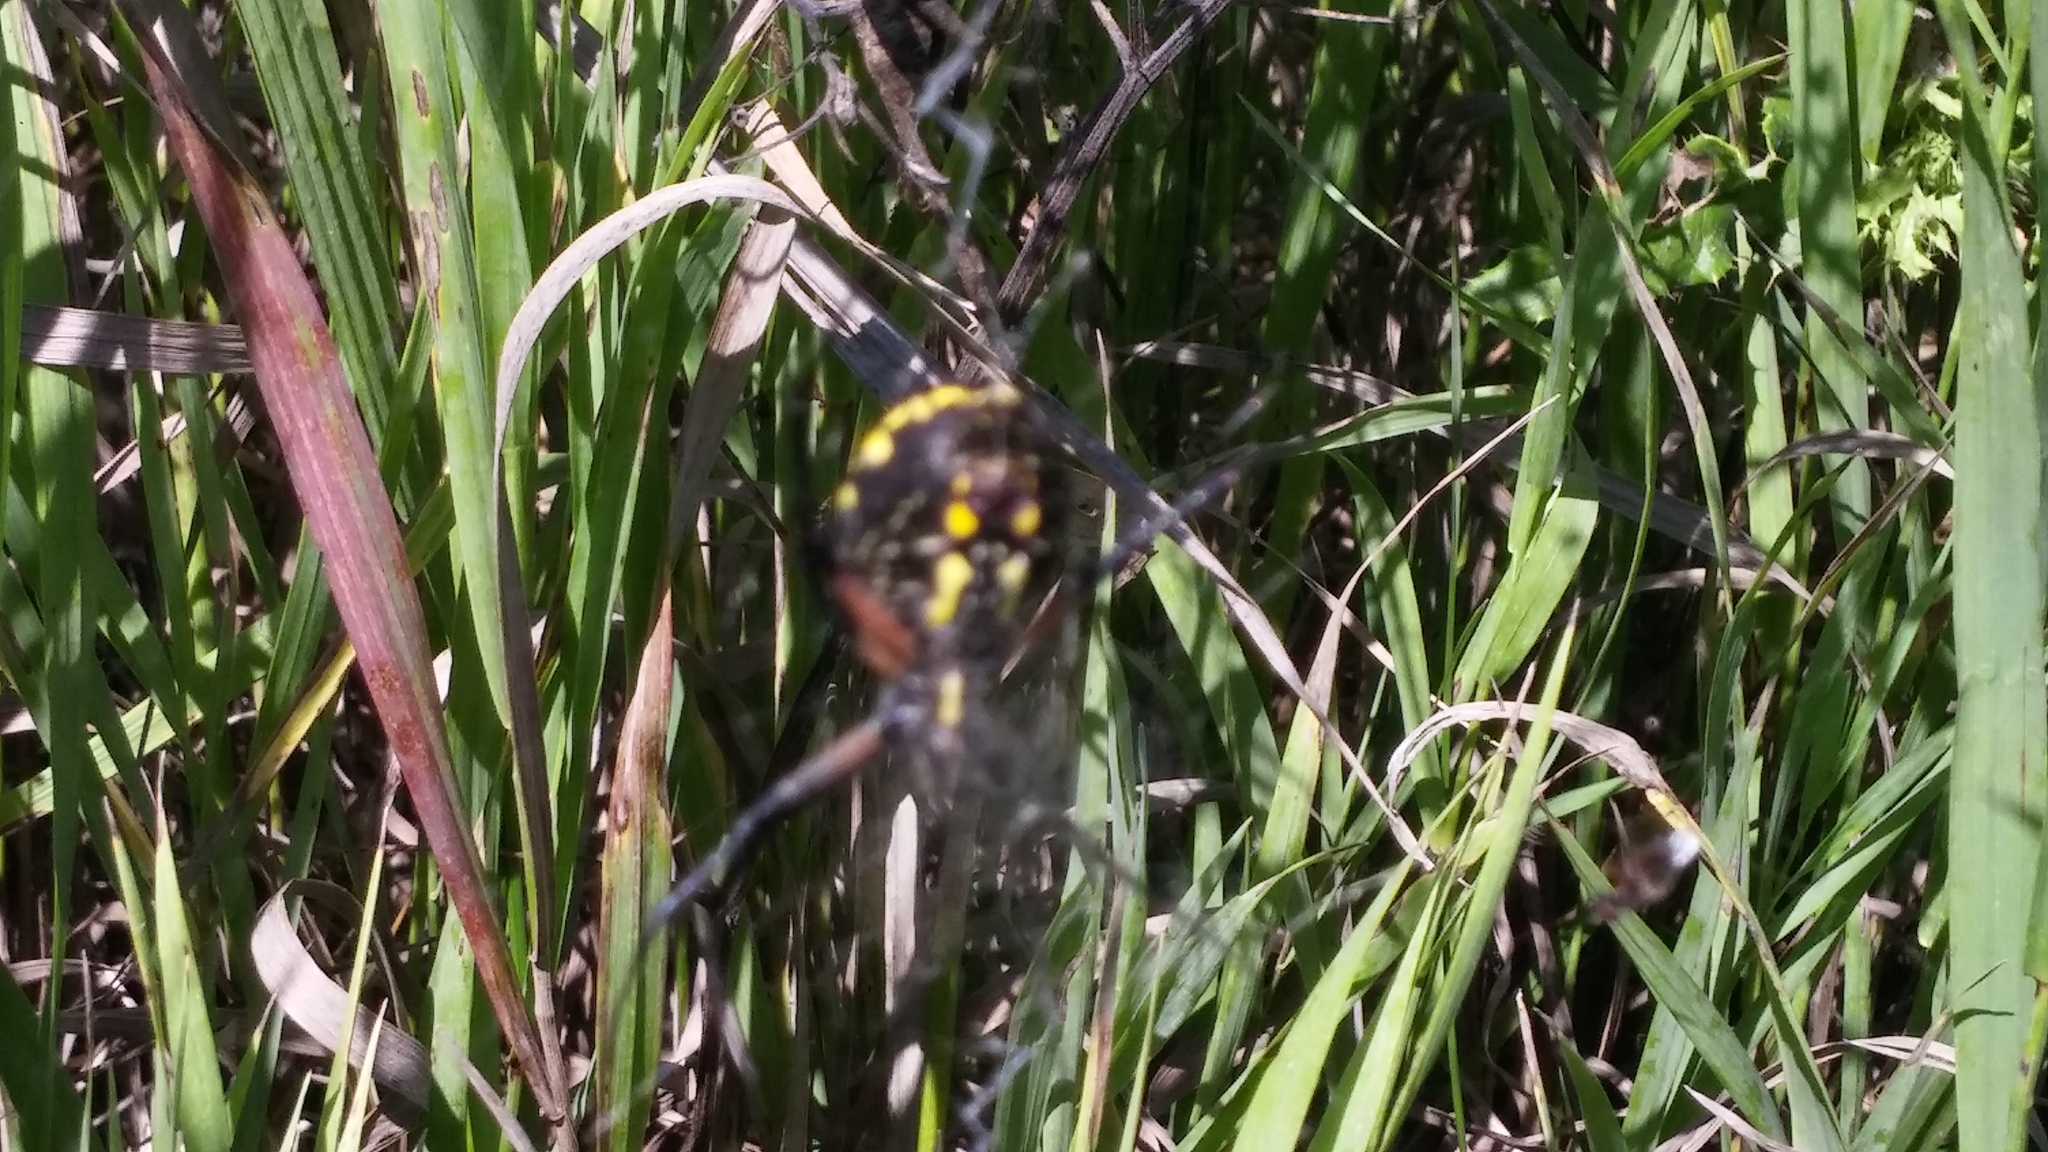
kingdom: Animalia
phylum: Arthropoda
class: Arachnida
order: Araneae
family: Araneidae
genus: Argiope
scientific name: Argiope aurantia
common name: Orb weavers
